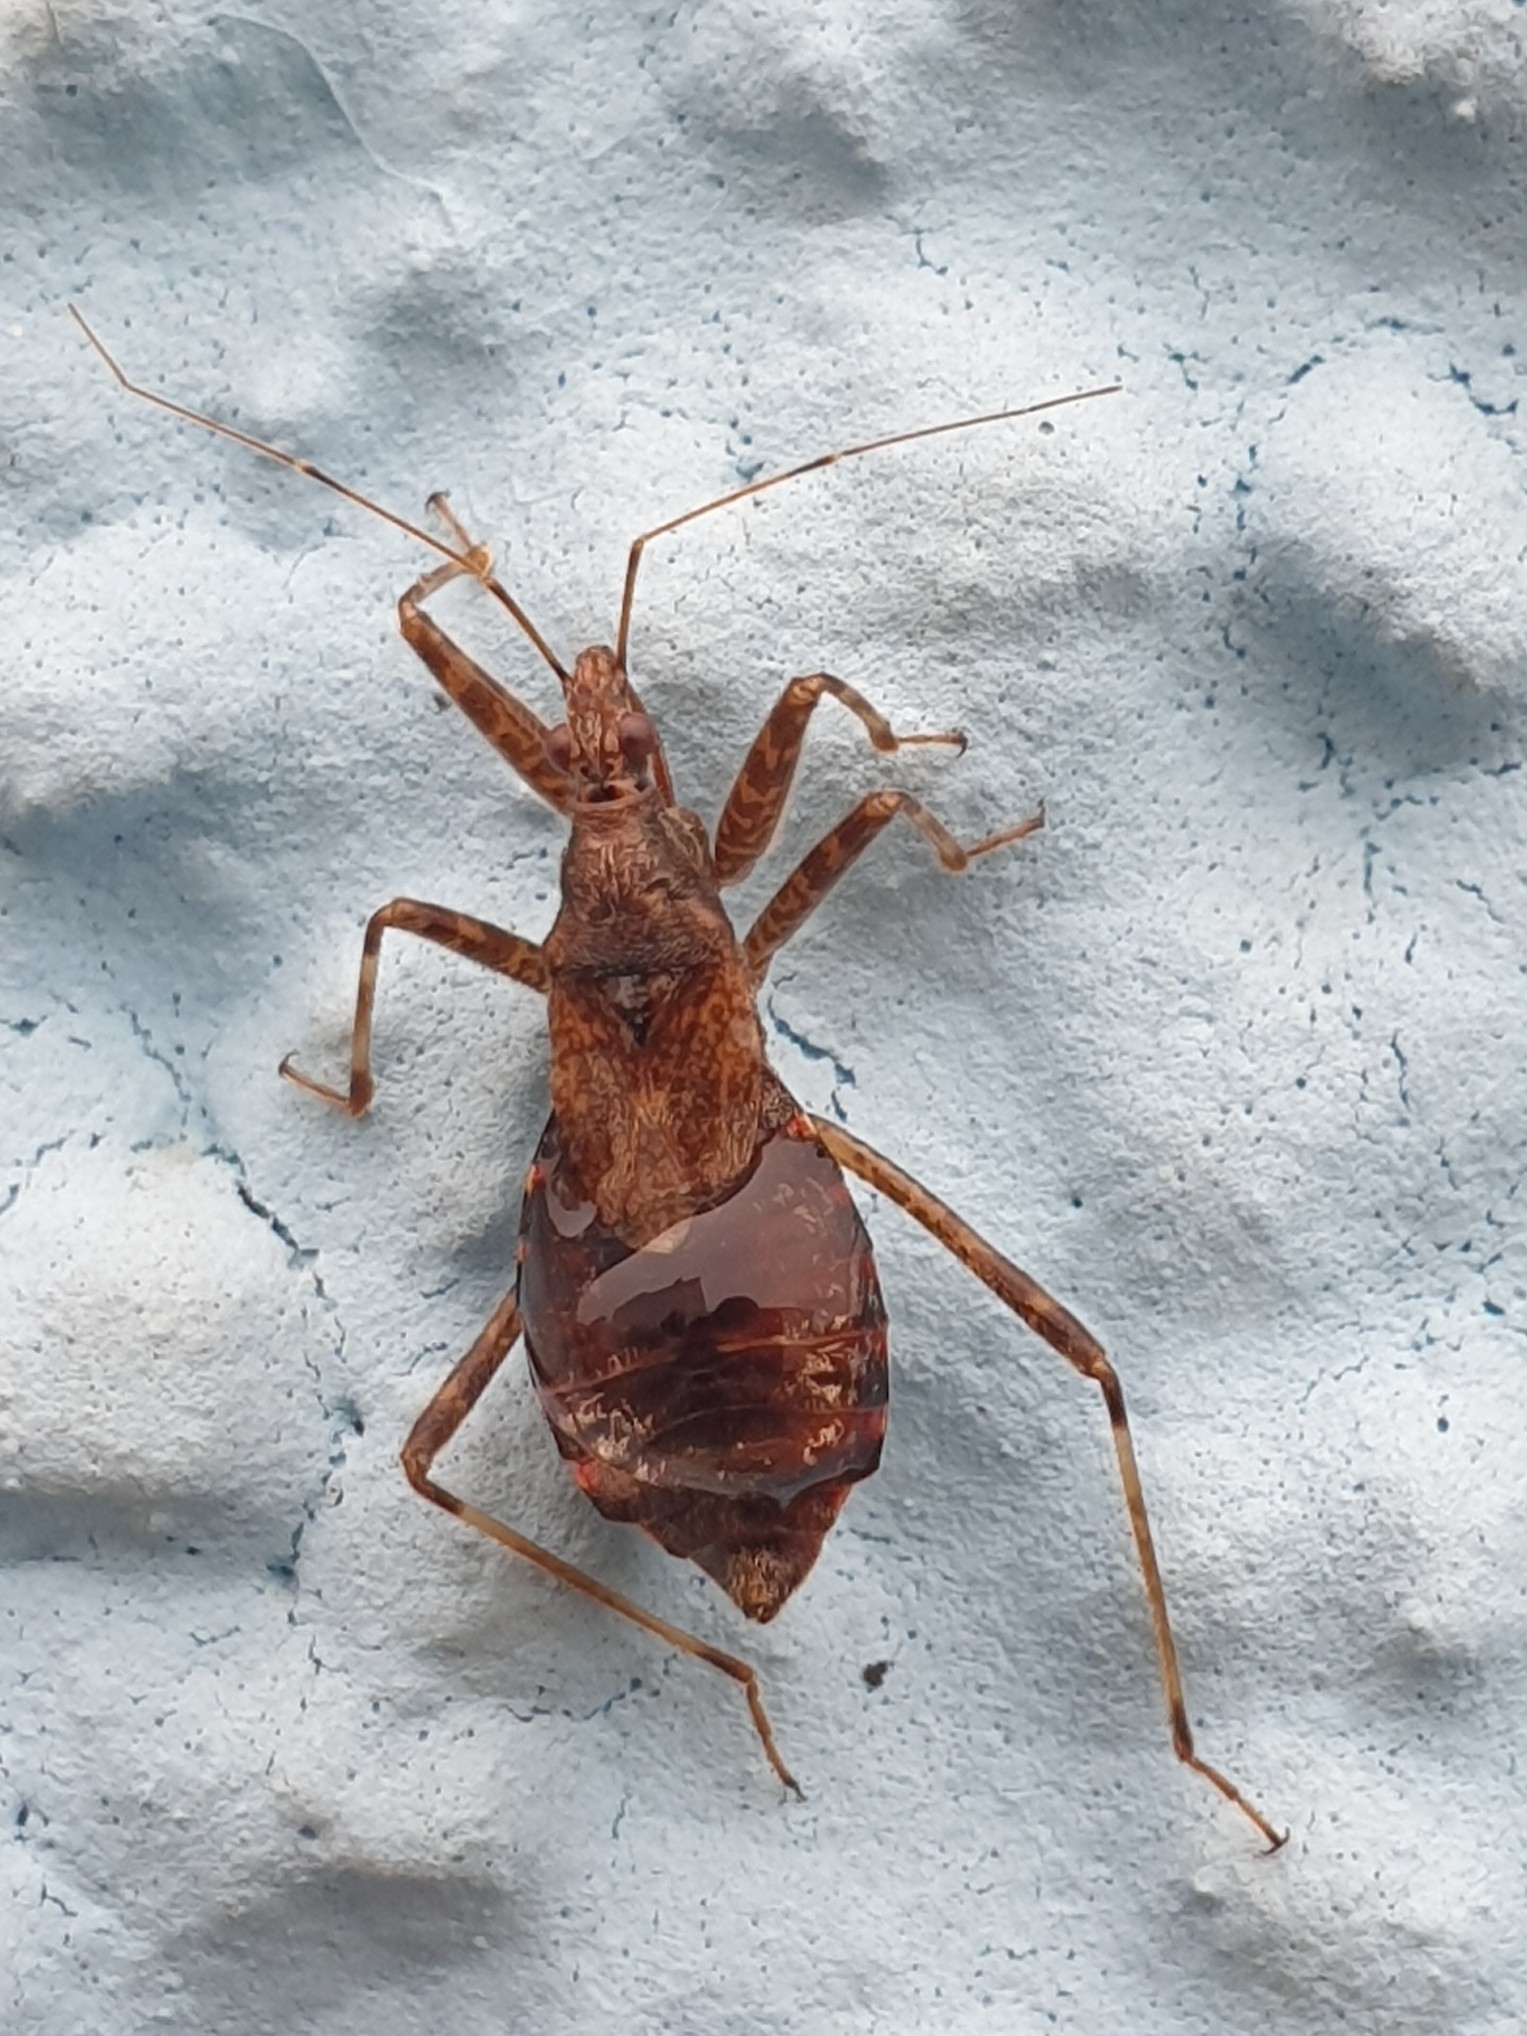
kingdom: Animalia
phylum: Arthropoda
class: Insecta
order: Hemiptera
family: Nabidae
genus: Himacerus
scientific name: Himacerus apterus
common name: Tree damsel bug
